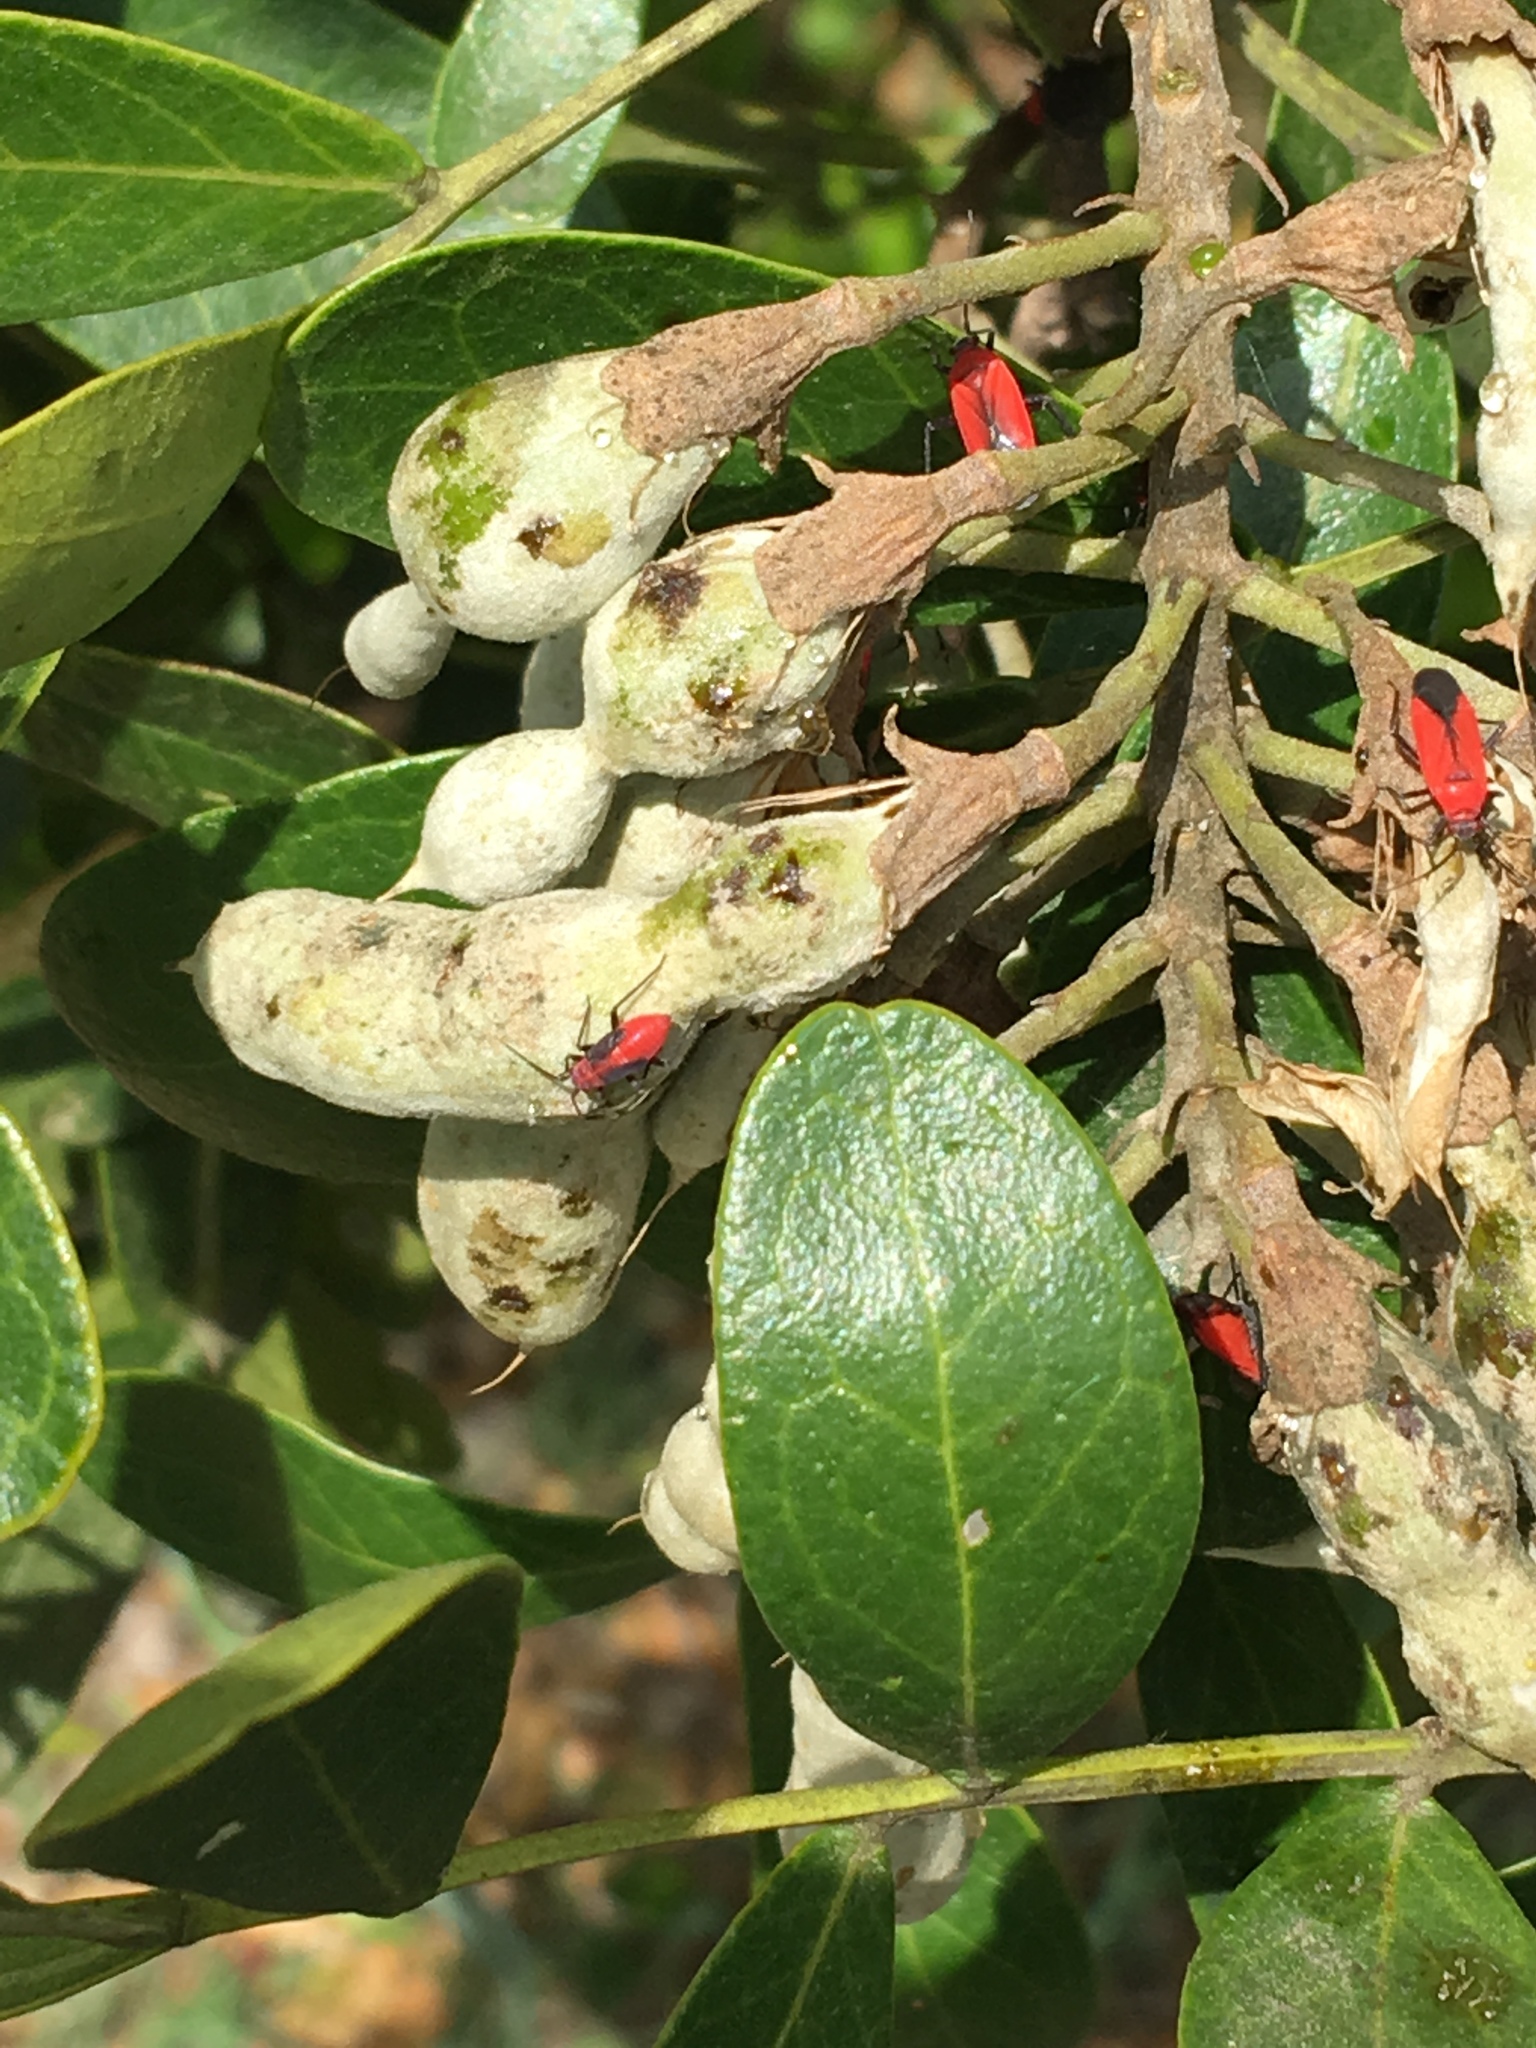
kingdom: Animalia
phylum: Arthropoda
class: Insecta
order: Hemiptera
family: Miridae
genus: Lopidea
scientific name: Lopidea major
